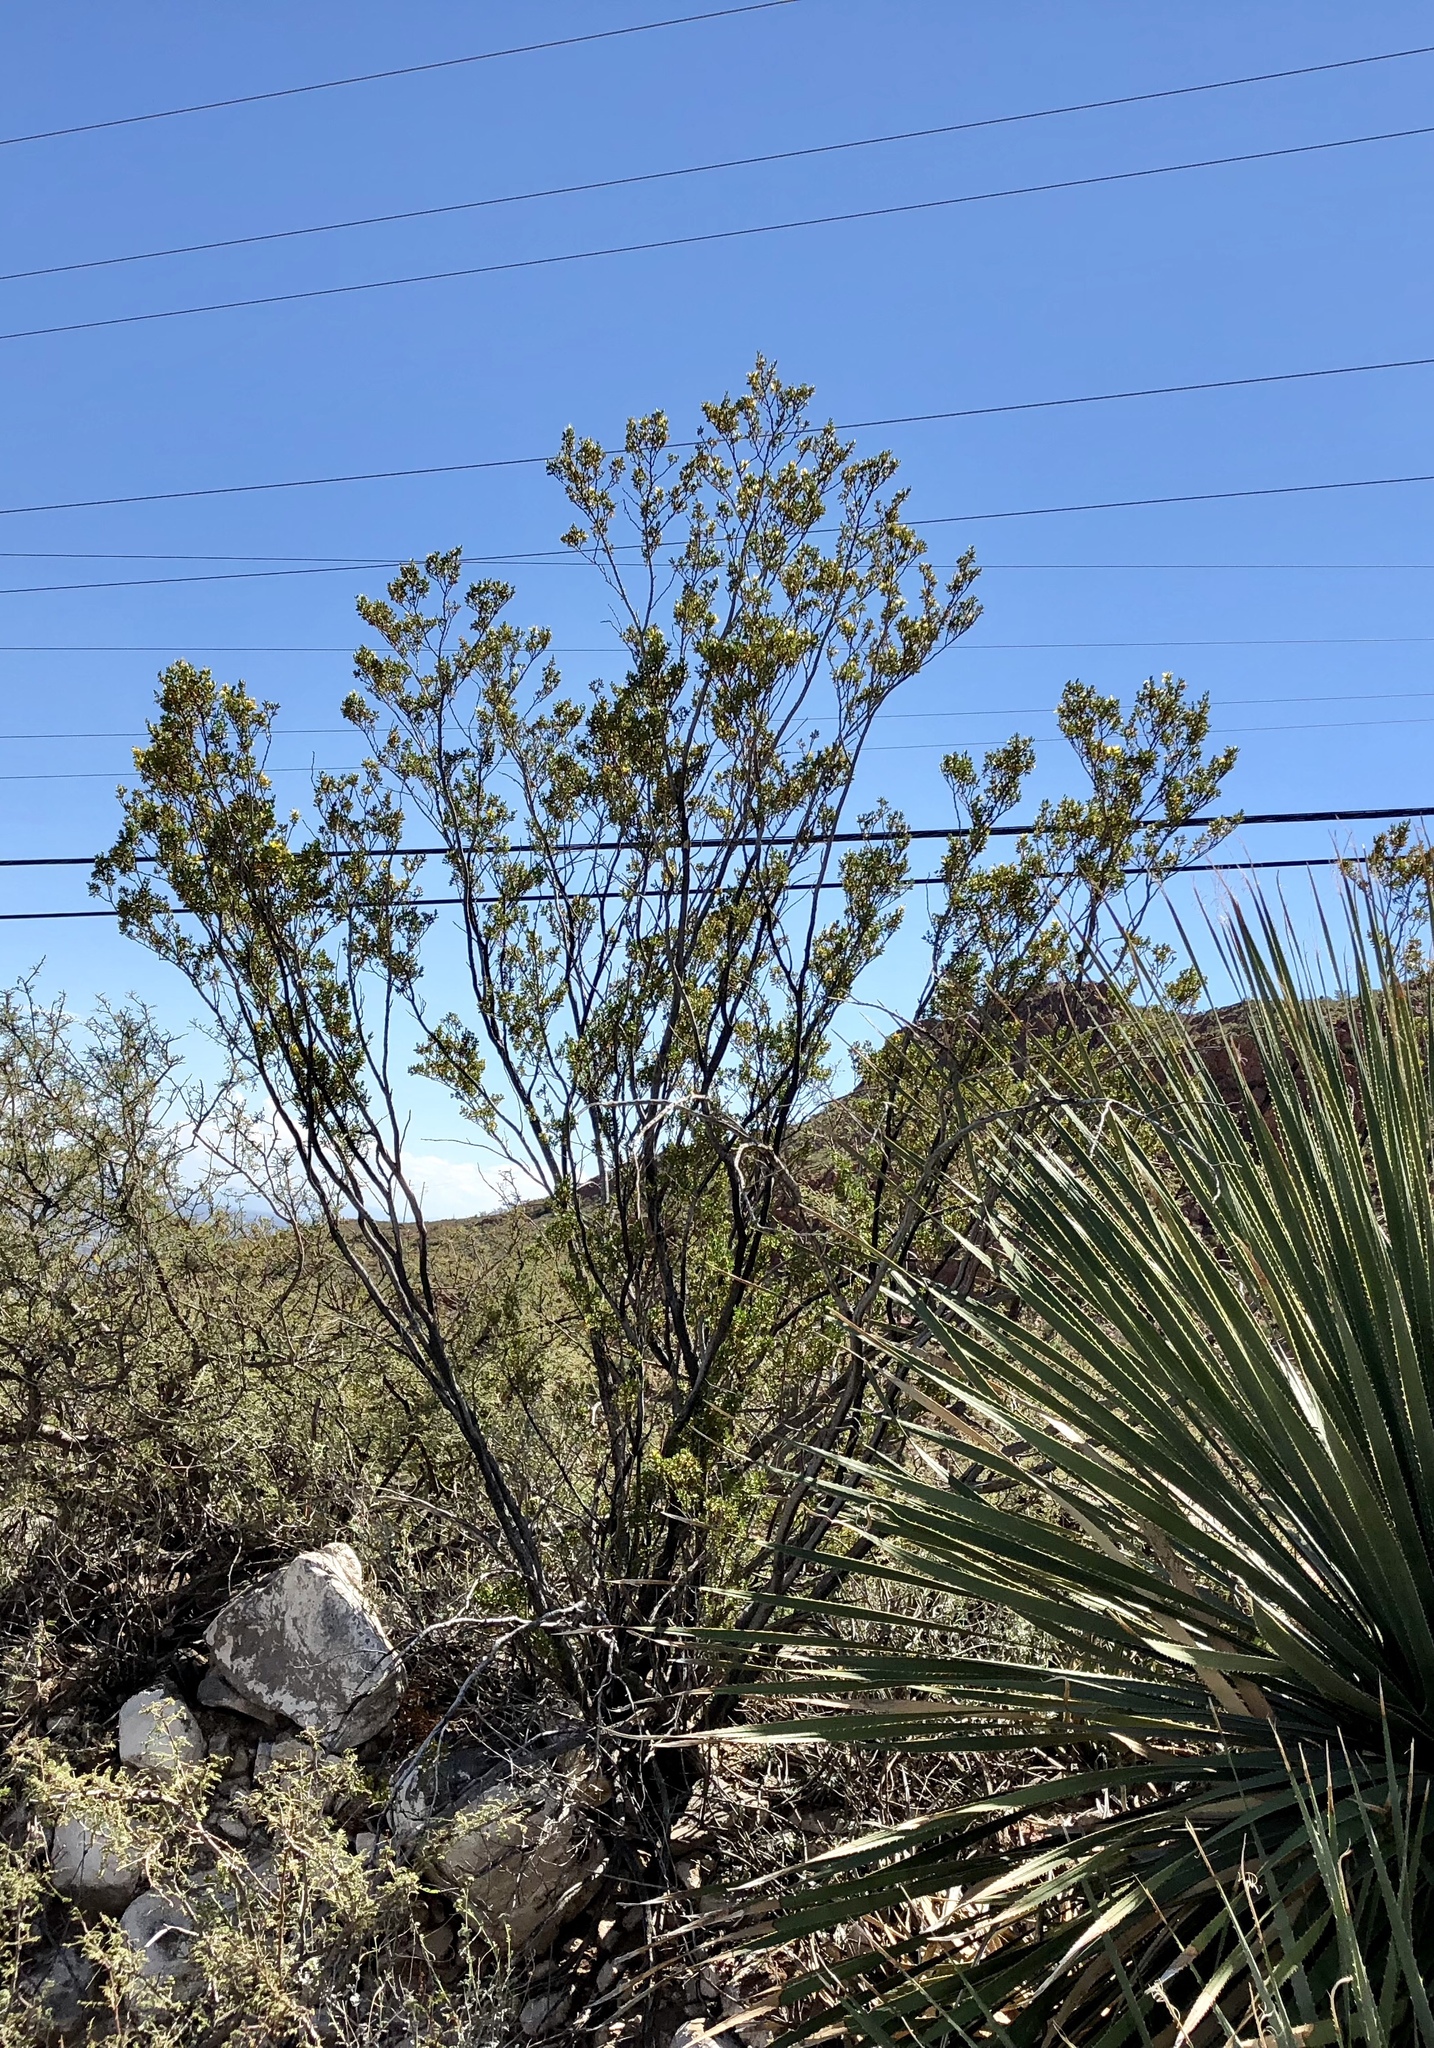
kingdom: Plantae
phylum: Tracheophyta
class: Magnoliopsida
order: Zygophyllales
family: Zygophyllaceae
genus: Larrea
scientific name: Larrea tridentata
